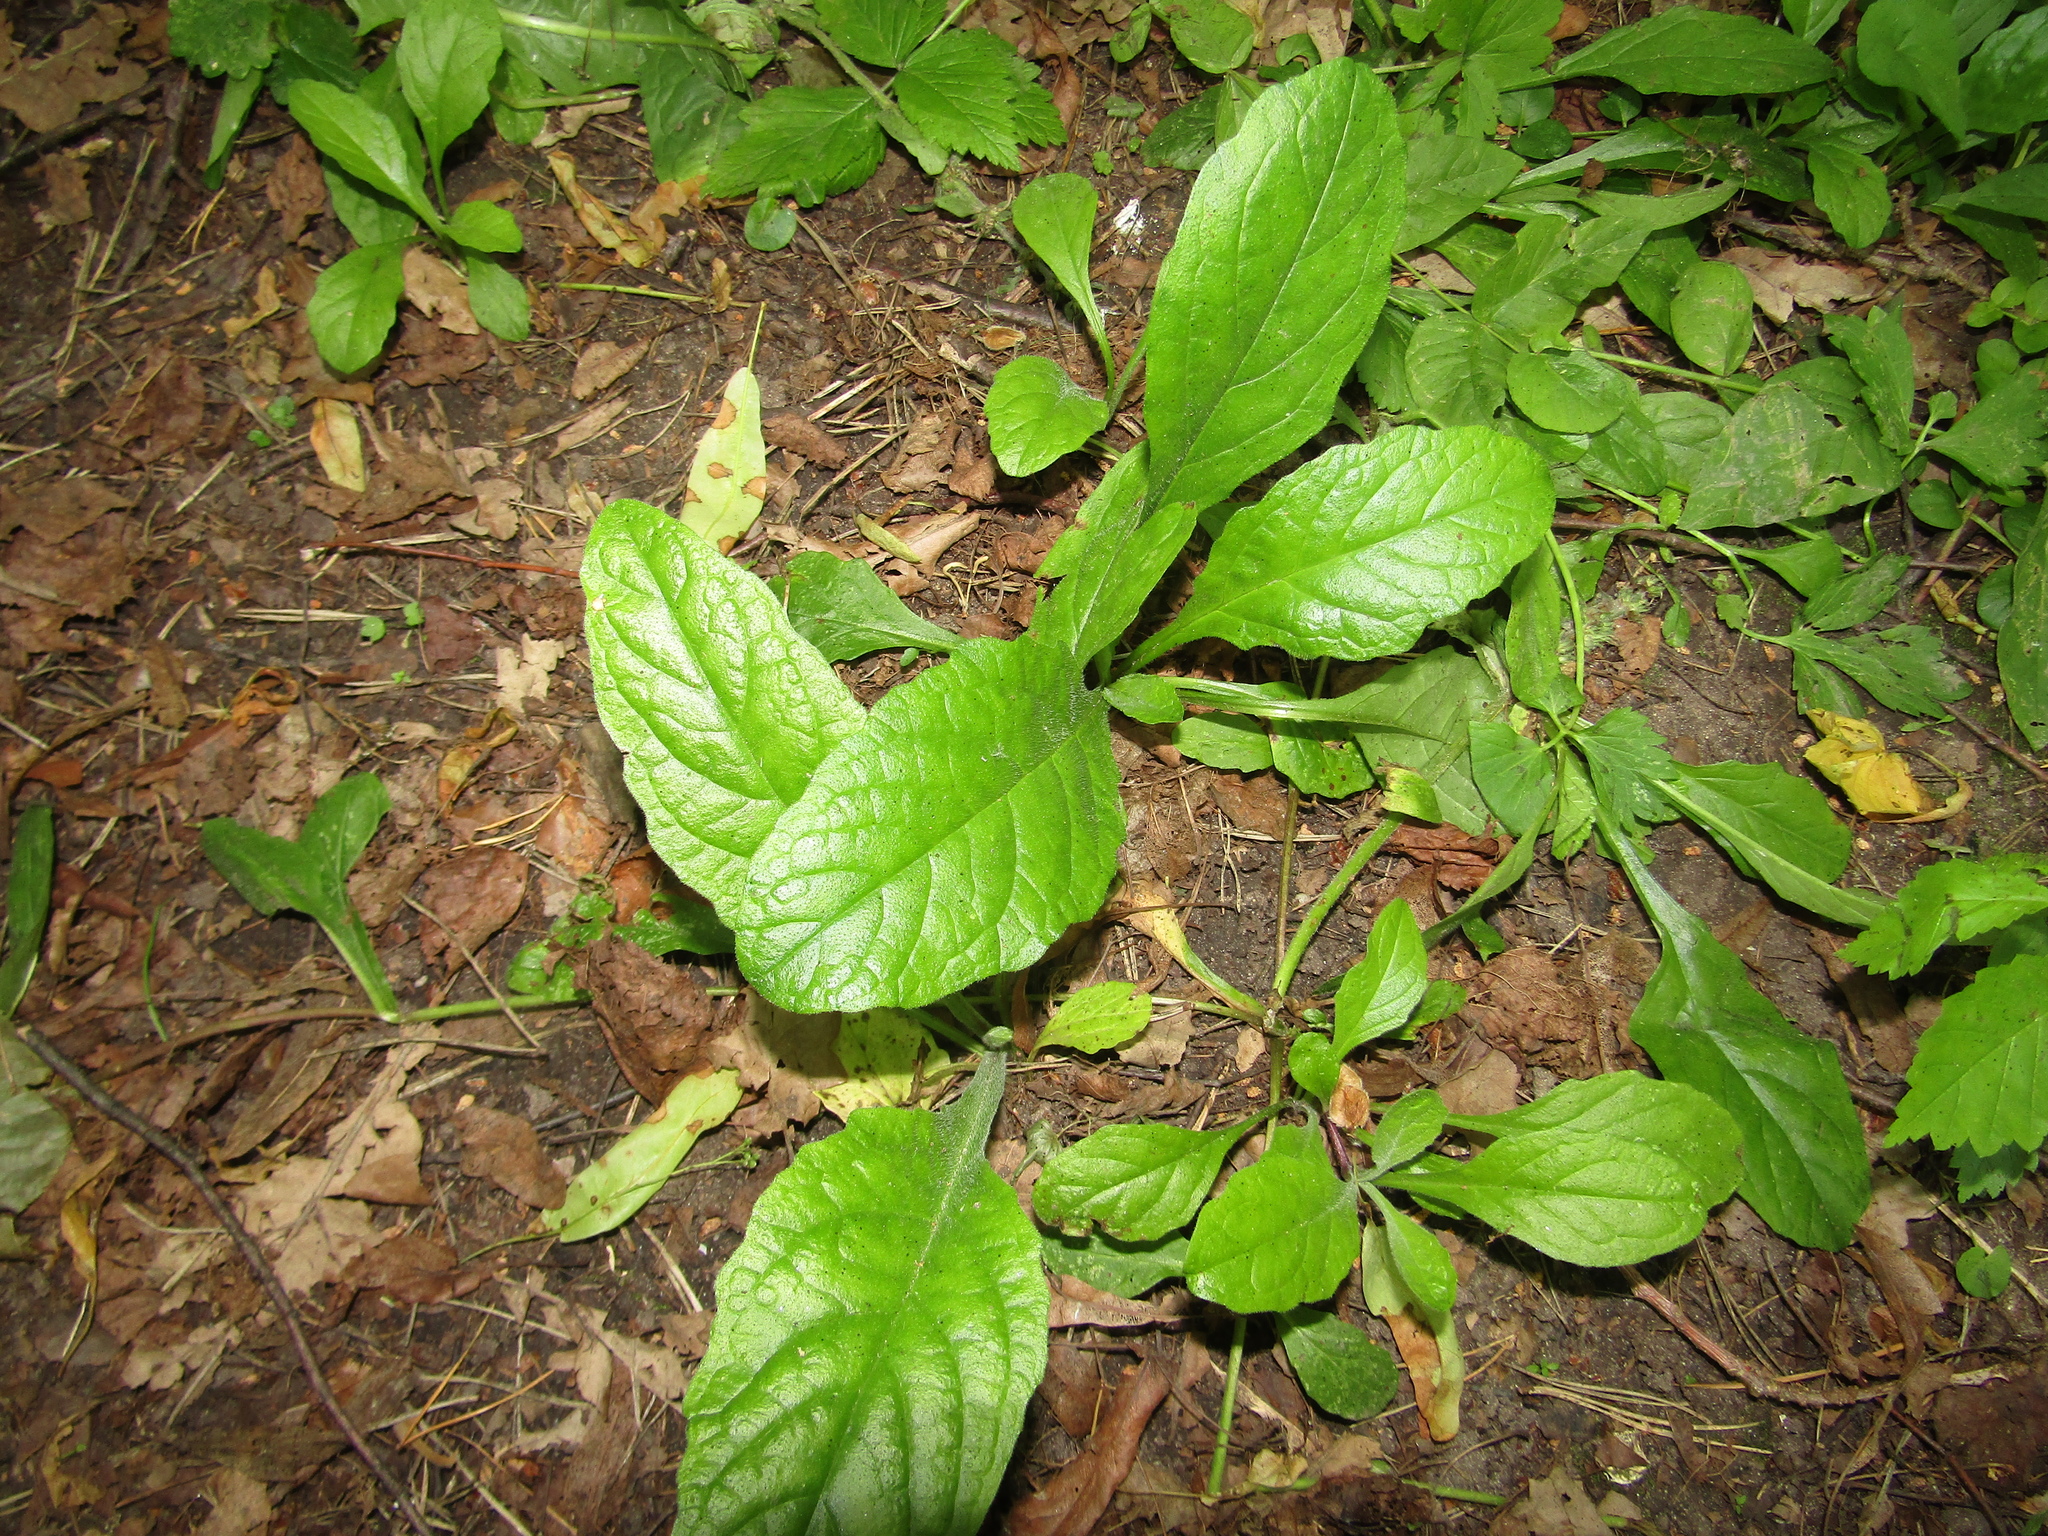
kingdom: Plantae
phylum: Tracheophyta
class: Magnoliopsida
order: Lamiales
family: Lamiaceae
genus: Ajuga
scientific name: Ajuga reptans
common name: Bugle
